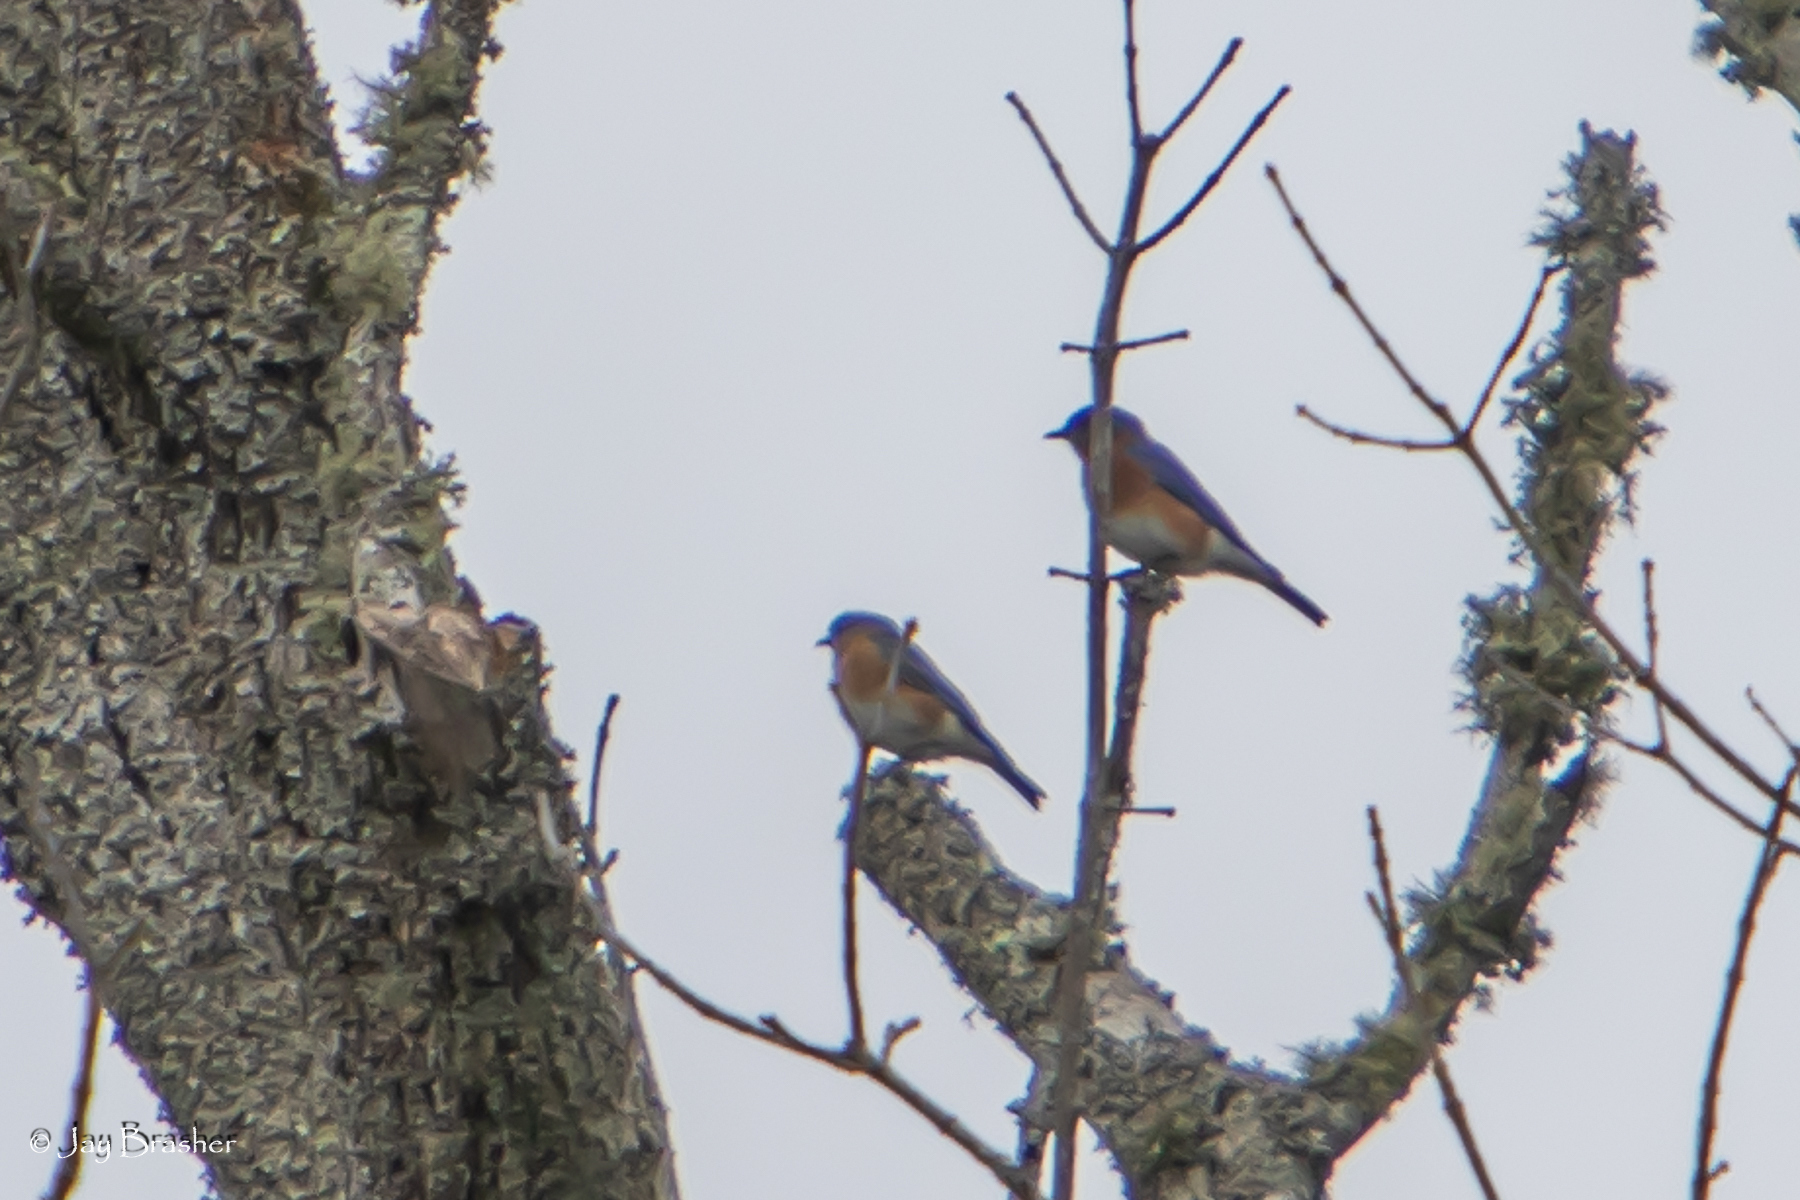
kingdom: Animalia
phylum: Chordata
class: Aves
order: Passeriformes
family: Turdidae
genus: Sialia
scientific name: Sialia sialis
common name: Eastern bluebird
